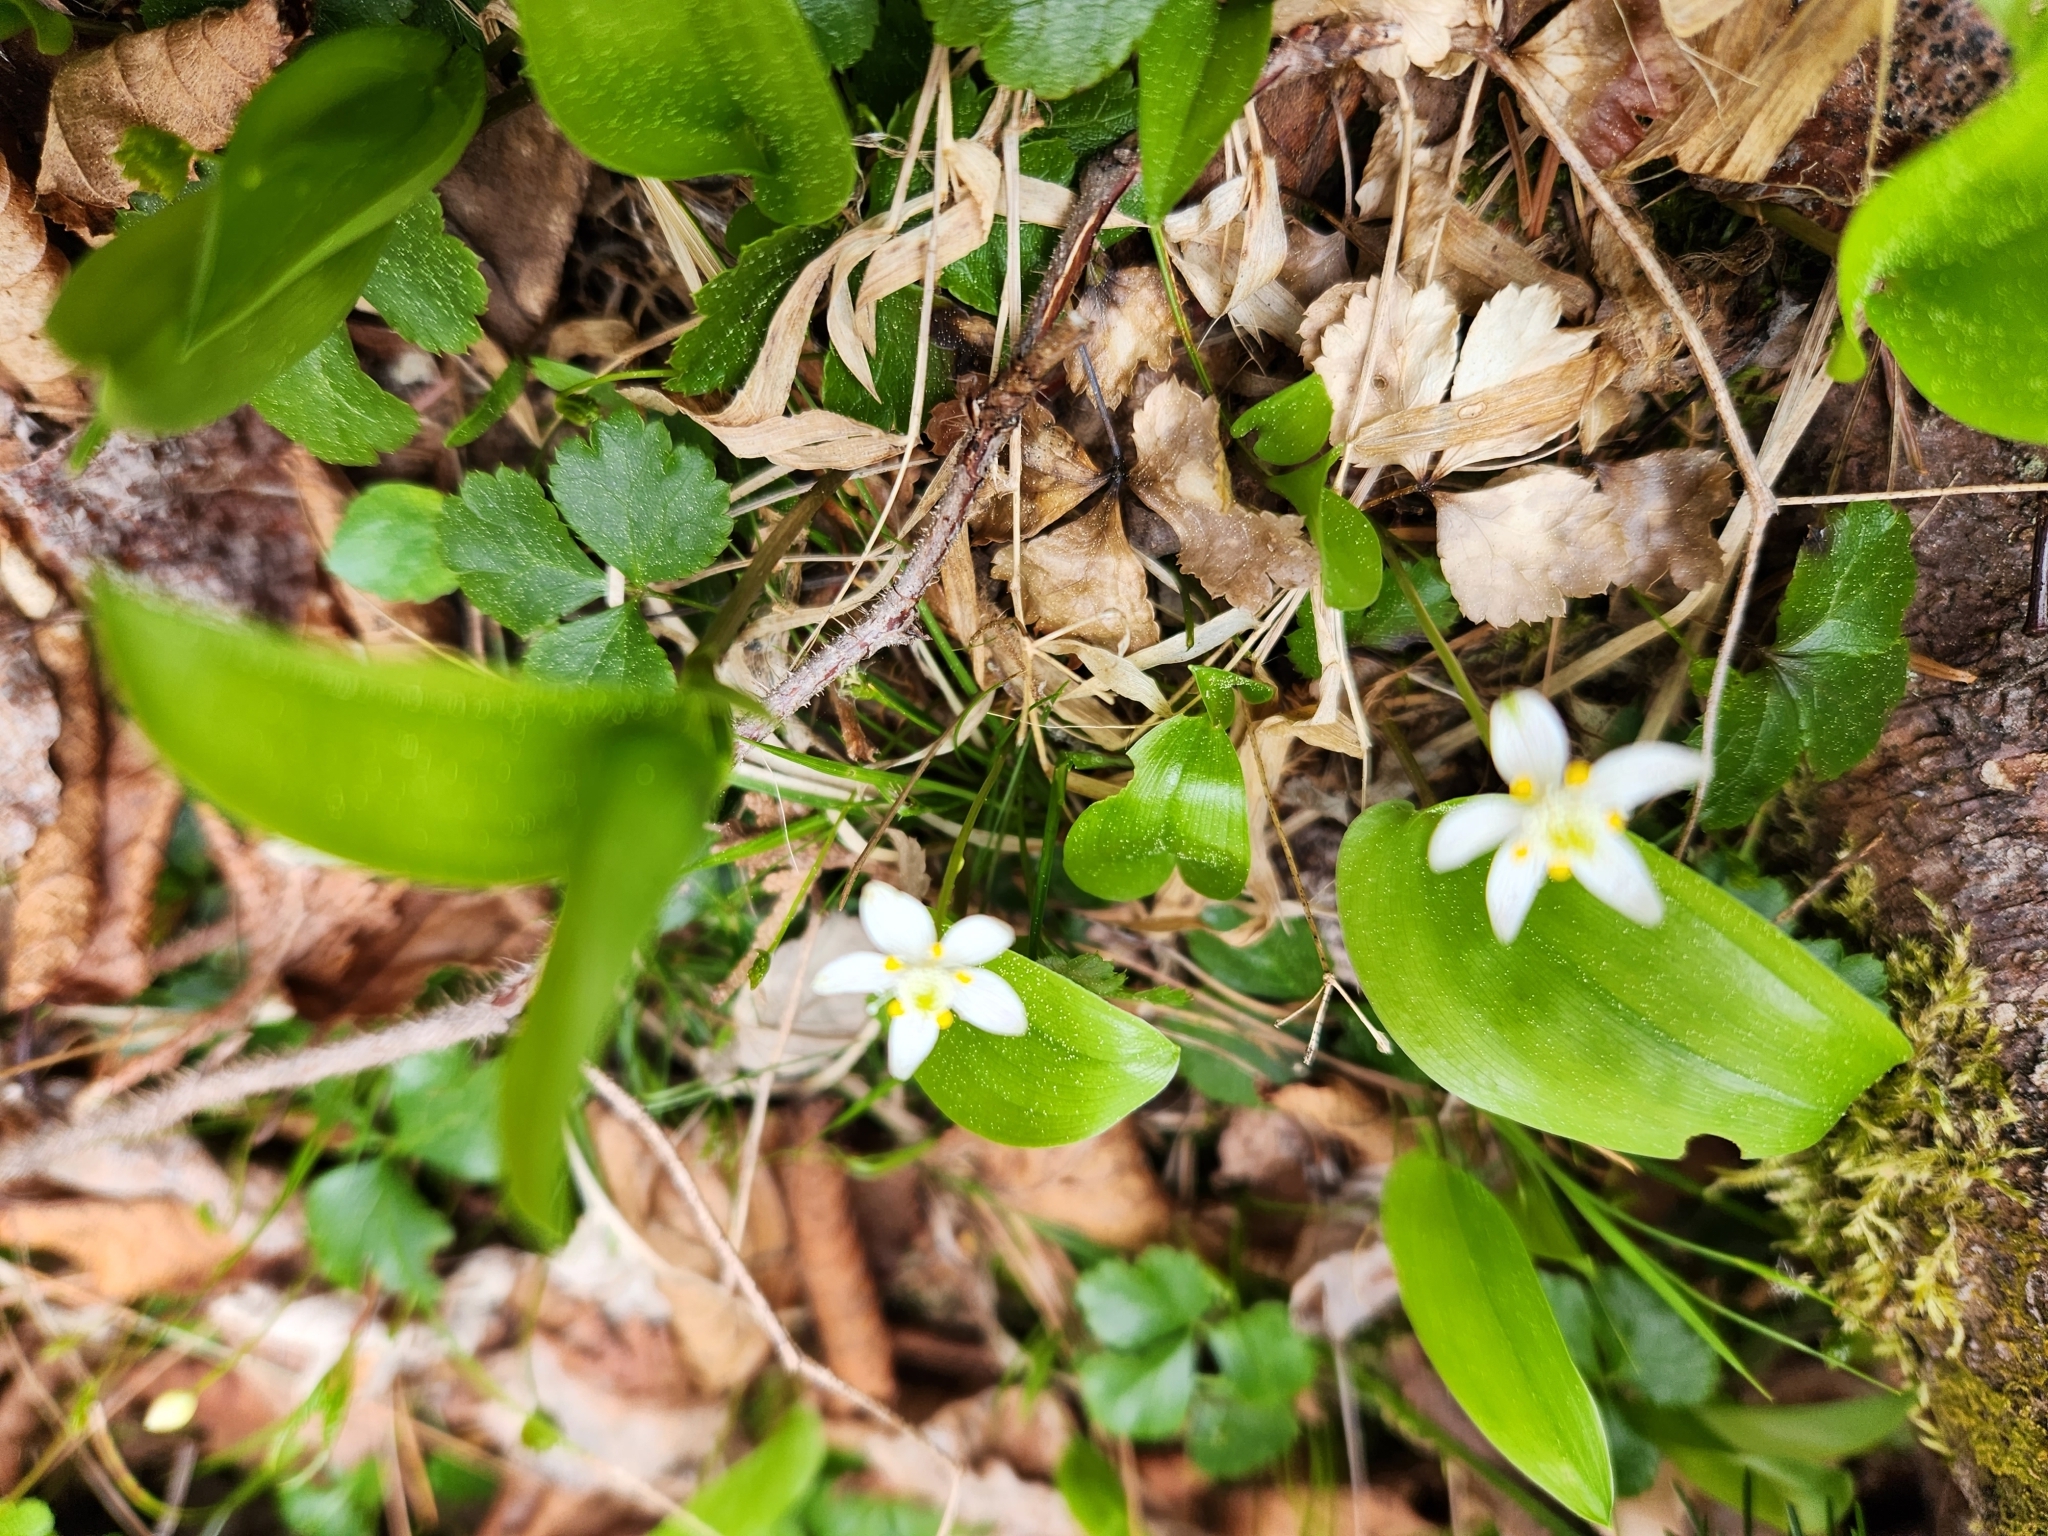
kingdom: Plantae
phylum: Tracheophyta
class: Magnoliopsida
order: Ranunculales
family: Ranunculaceae
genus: Coptis
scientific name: Coptis trifolia
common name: Canker-root
